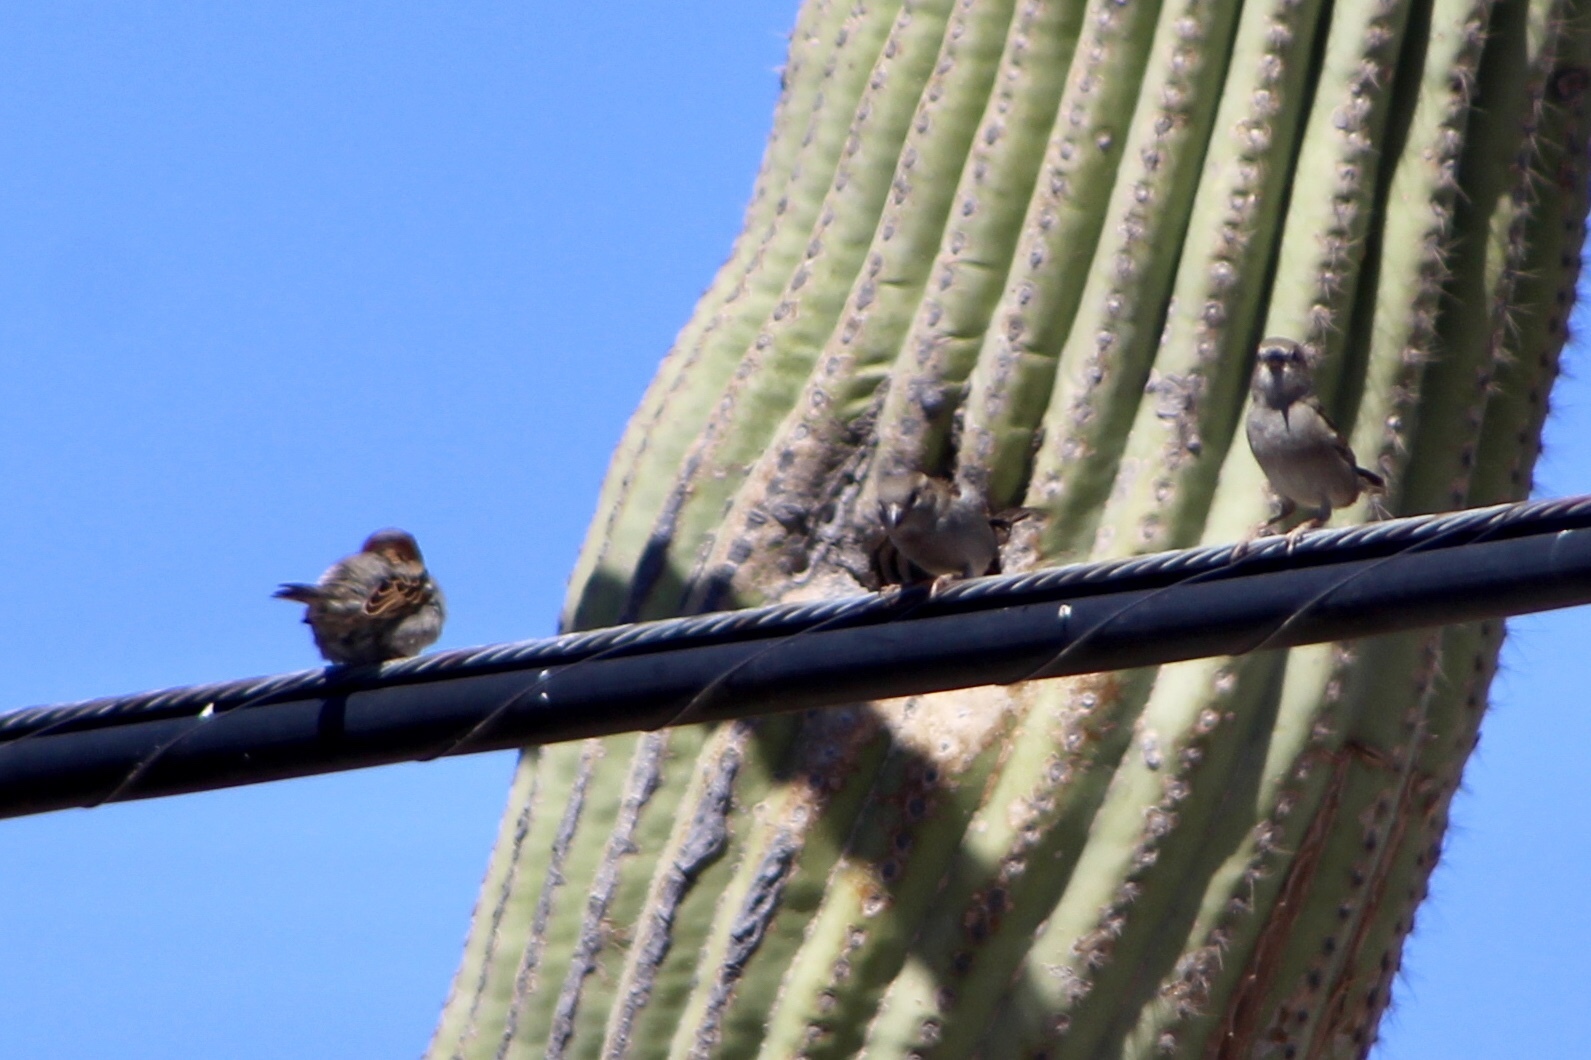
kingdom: Animalia
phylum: Chordata
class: Aves
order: Passeriformes
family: Passeridae
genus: Passer
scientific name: Passer domesticus
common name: House sparrow
